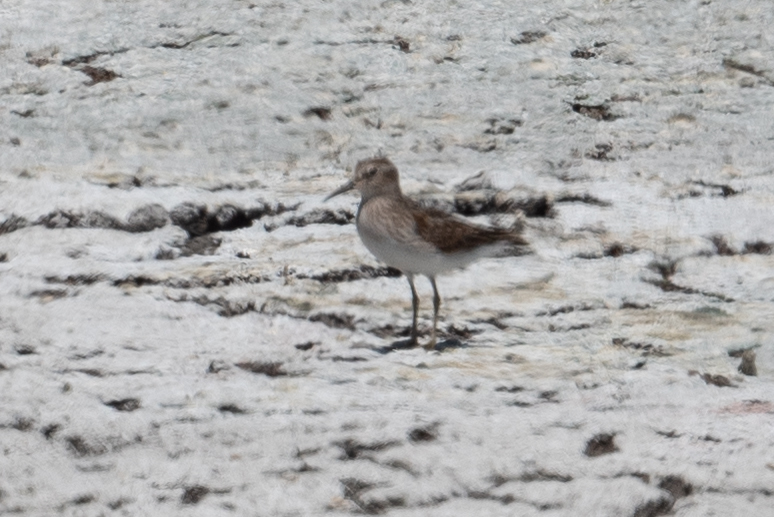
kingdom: Animalia
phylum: Chordata
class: Aves
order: Charadriiformes
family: Scolopacidae
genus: Calidris
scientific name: Calidris minutilla
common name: Least sandpiper
